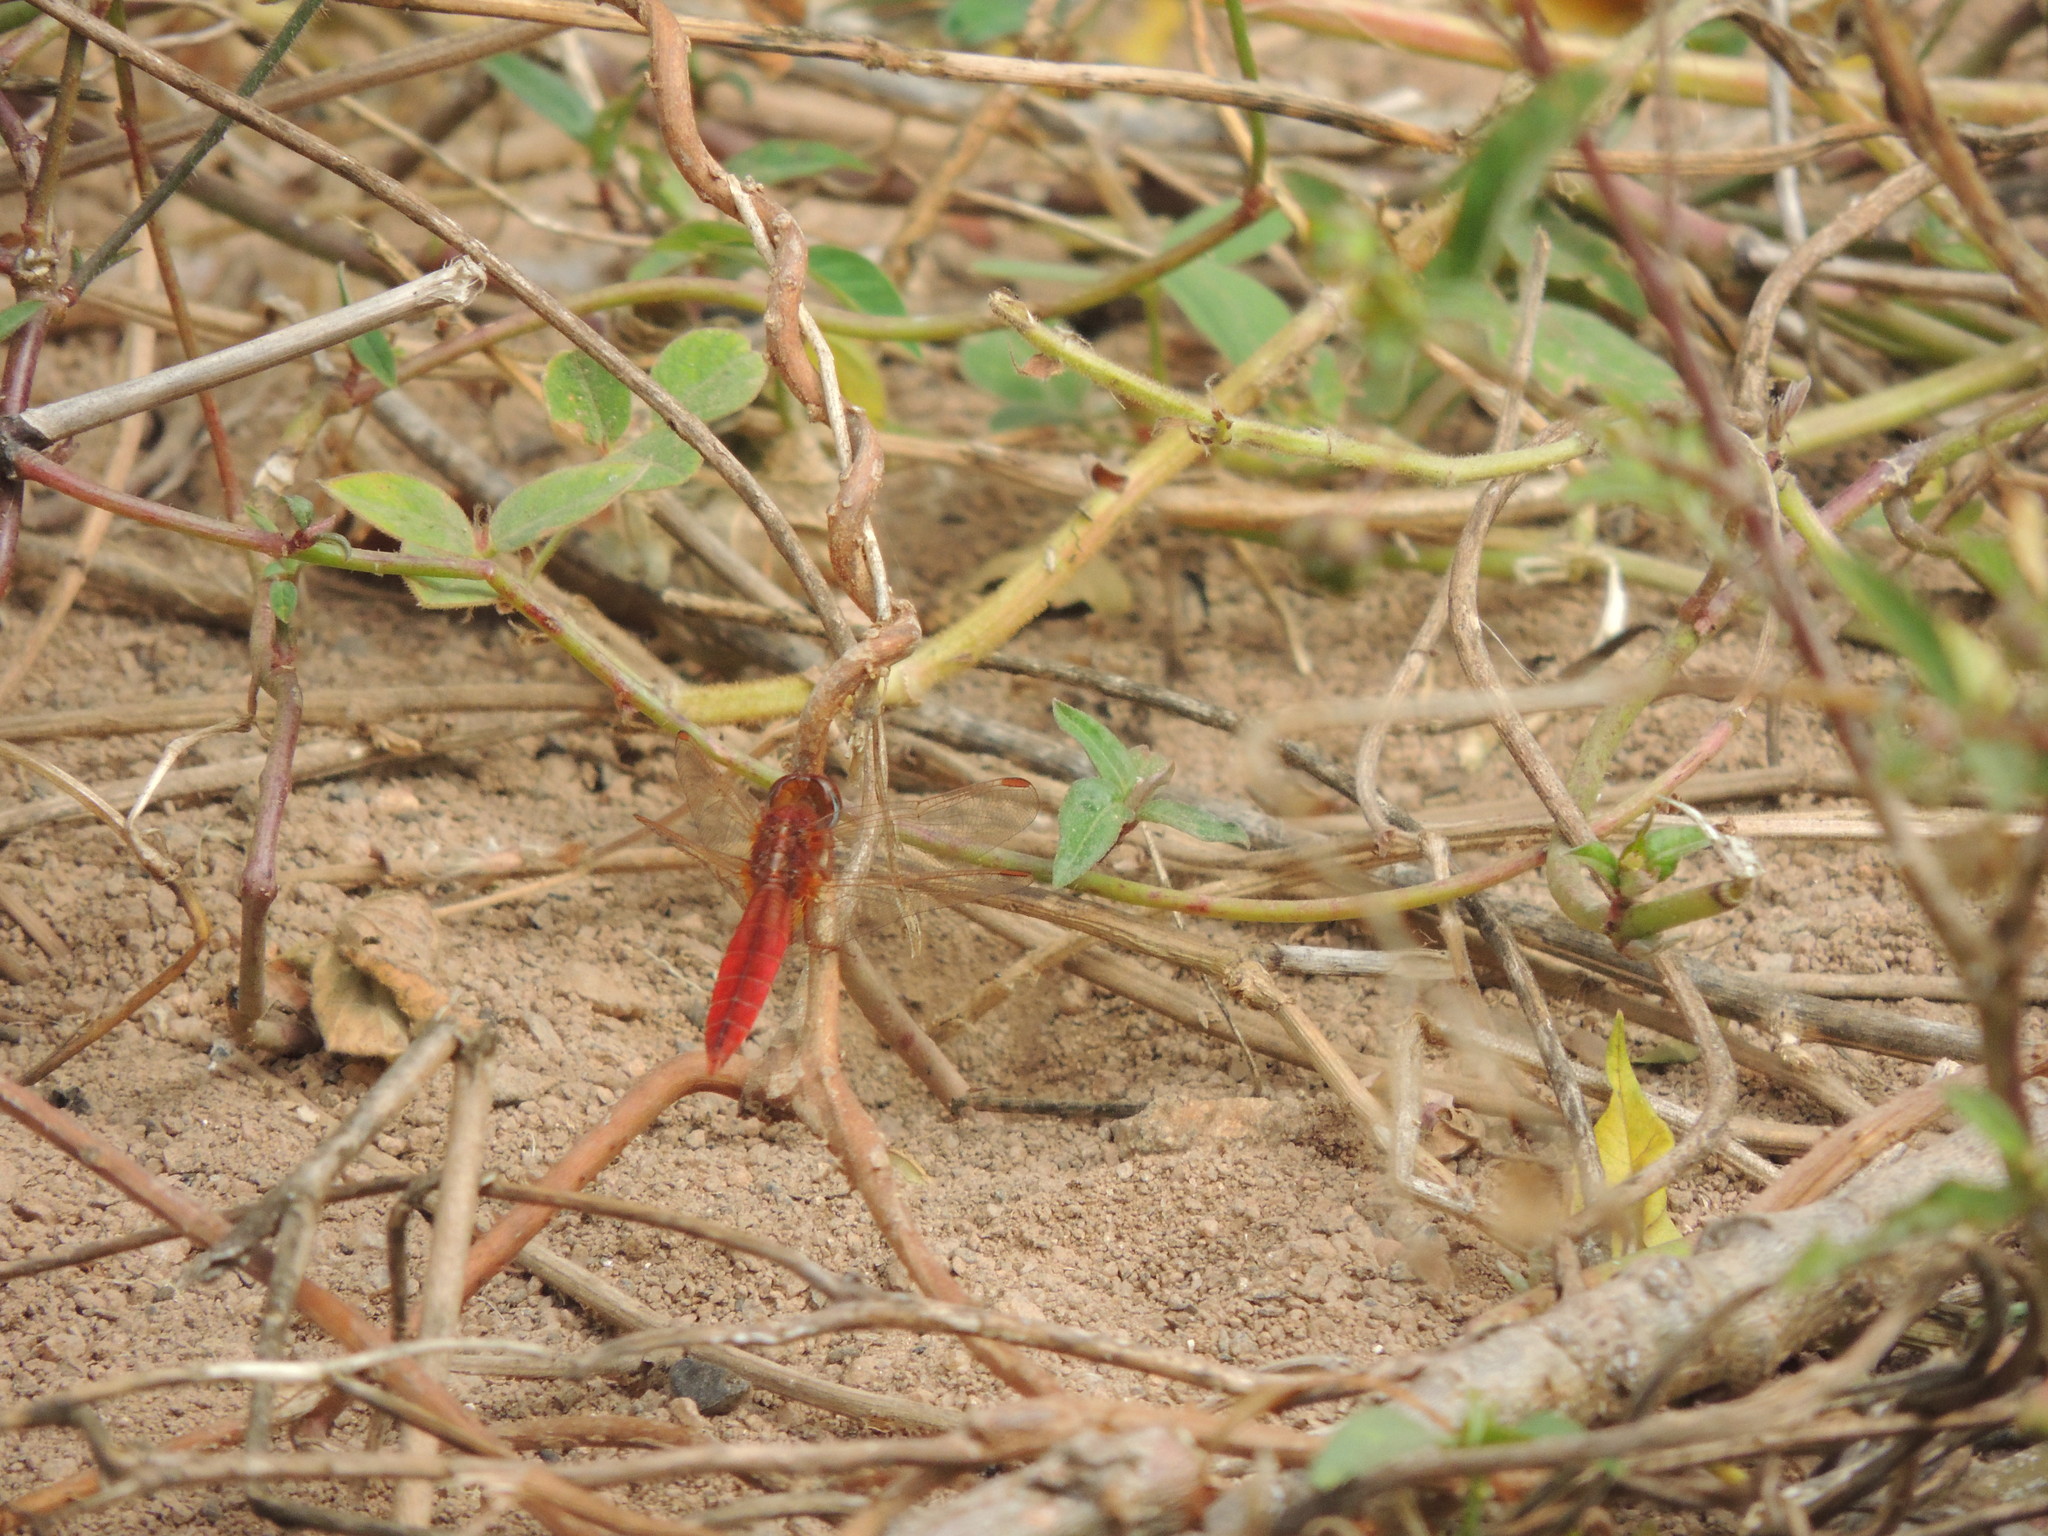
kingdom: Animalia
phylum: Arthropoda
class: Insecta
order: Odonata
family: Libellulidae
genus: Crocothemis
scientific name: Crocothemis erythraea
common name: Scarlet dragonfly
